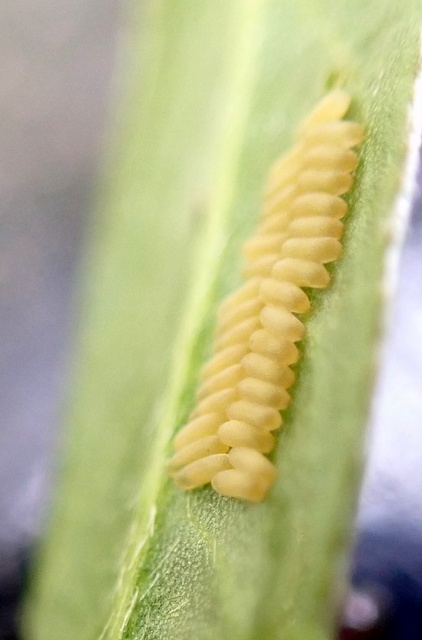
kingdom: Animalia
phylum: Arthropoda
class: Insecta
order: Coleoptera
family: Chrysomelidae
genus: Agasicles
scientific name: Agasicles hygrophila
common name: Alligatorweed flea beetle
